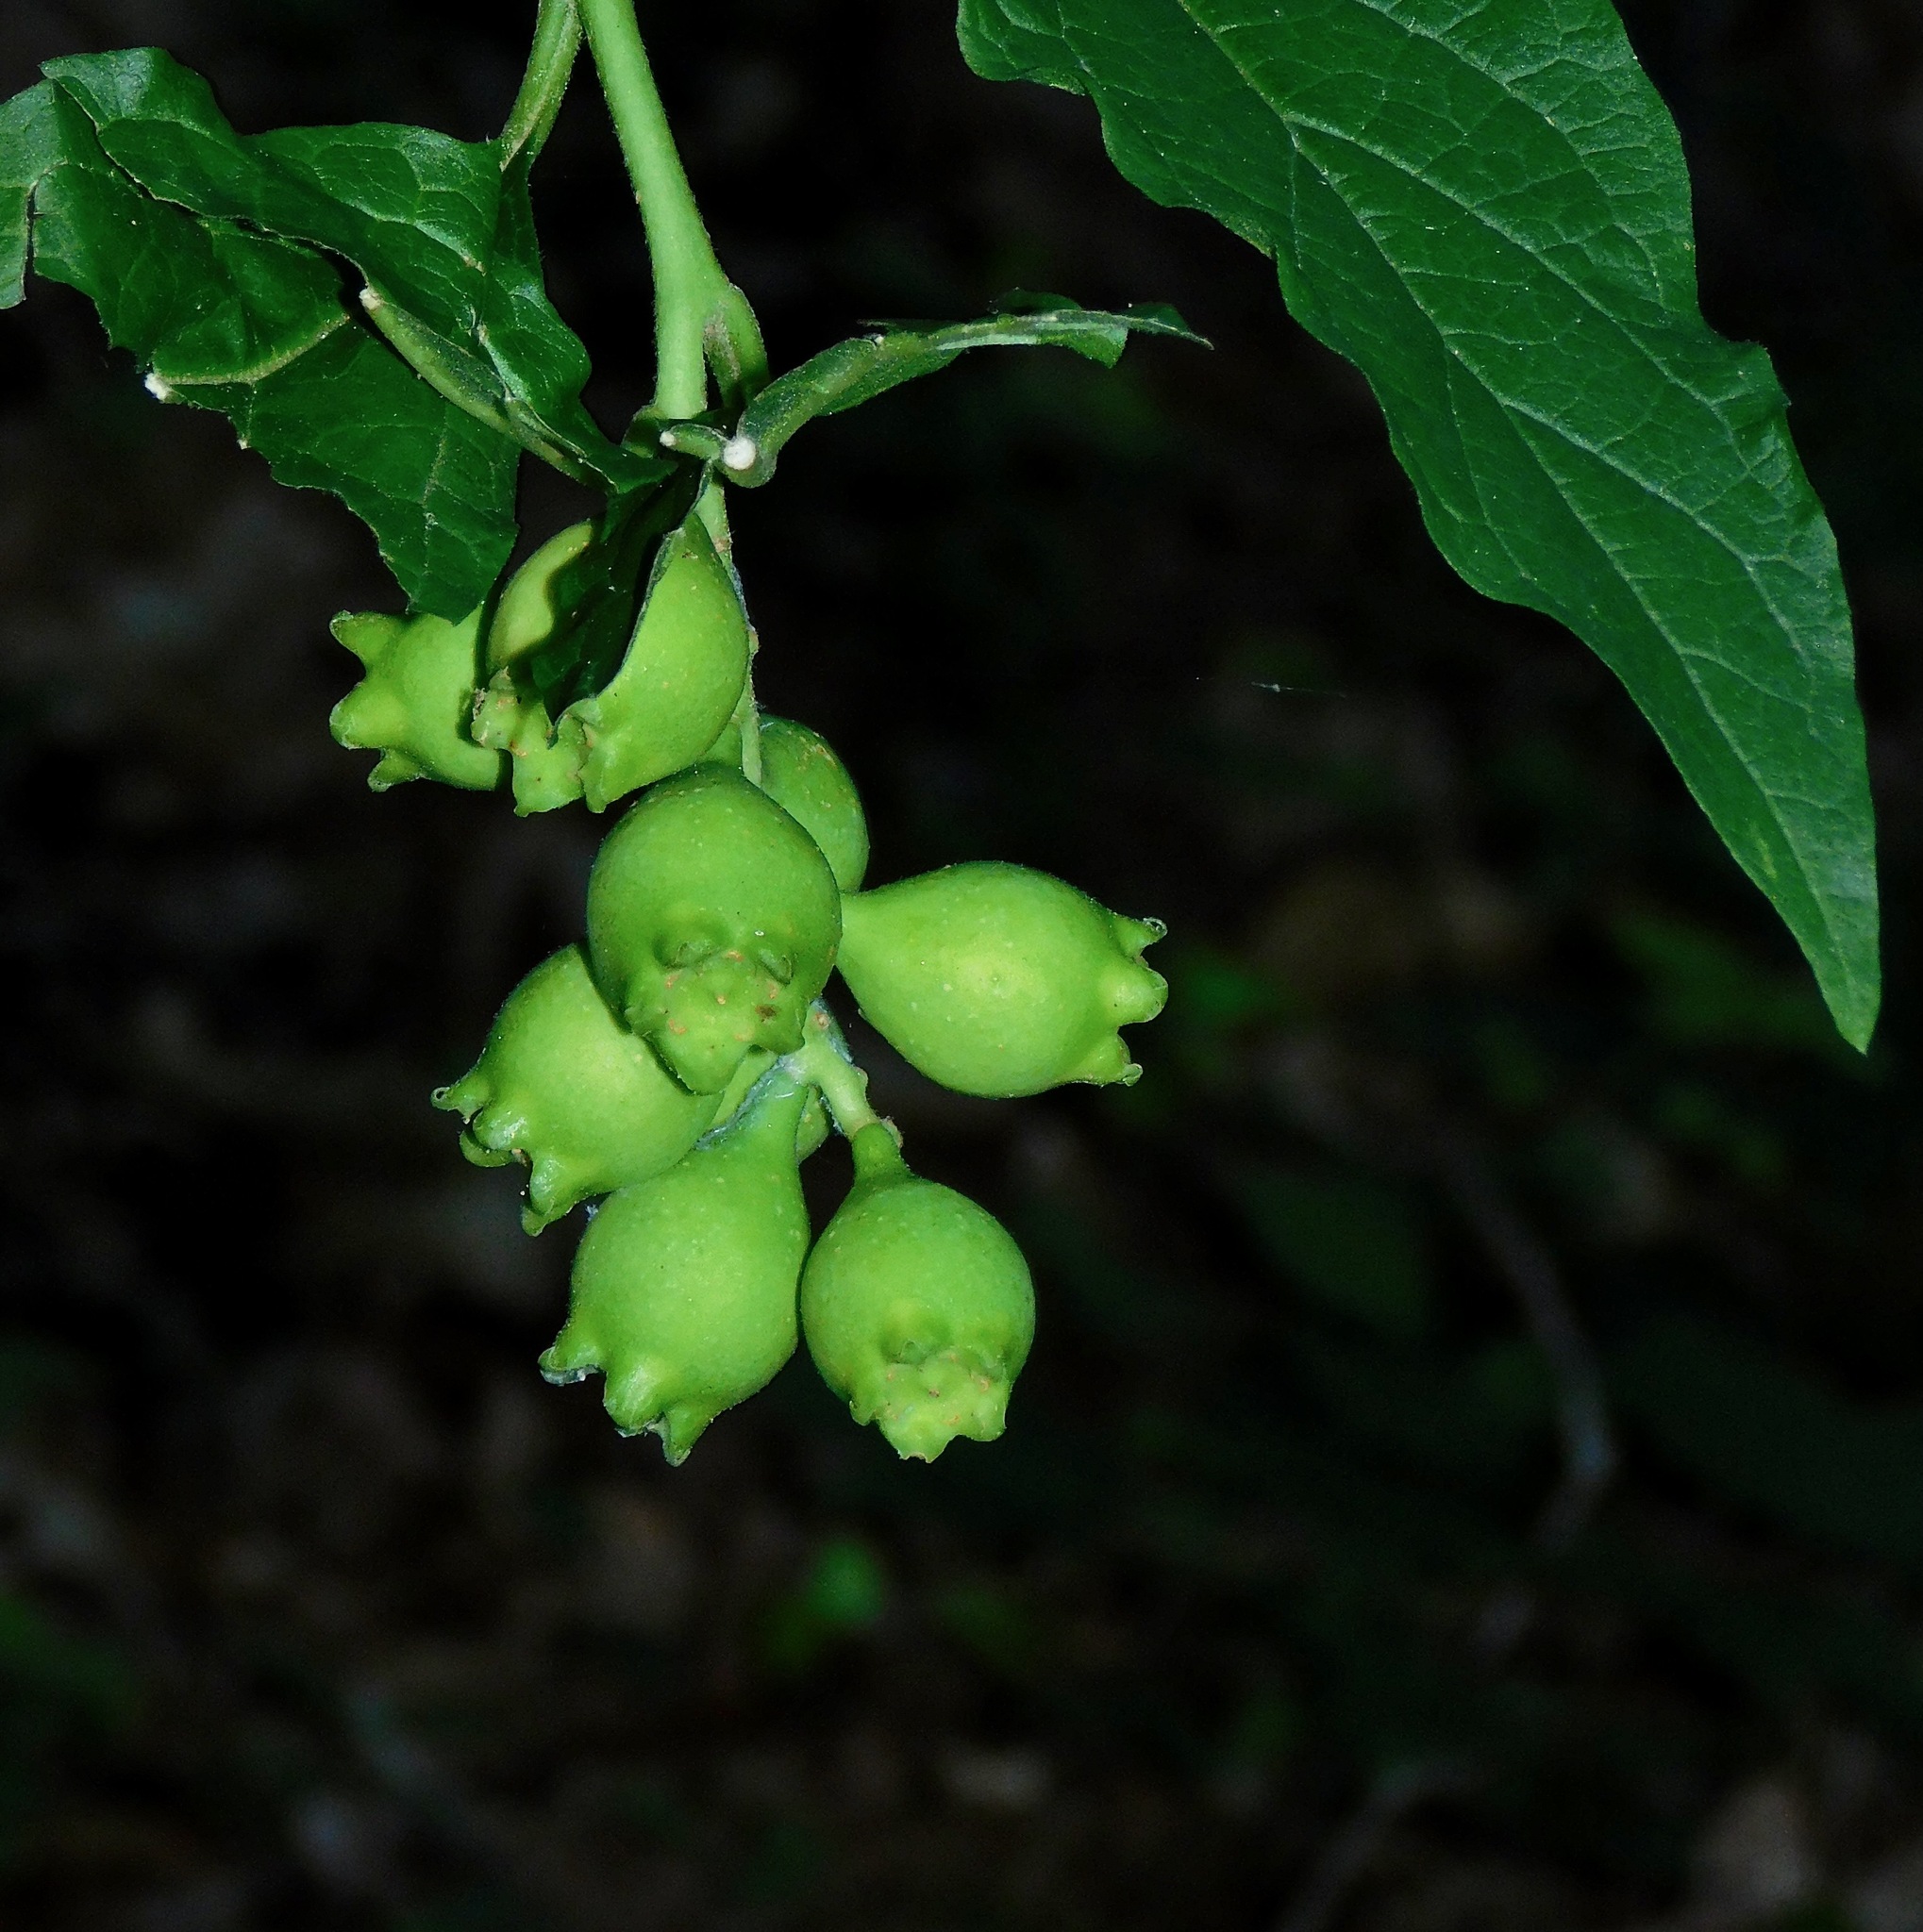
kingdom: Plantae
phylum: Tracheophyta
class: Magnoliopsida
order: Santalales
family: Cervantesiaceae
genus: Pyrularia
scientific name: Pyrularia pubera
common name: Oilnut
